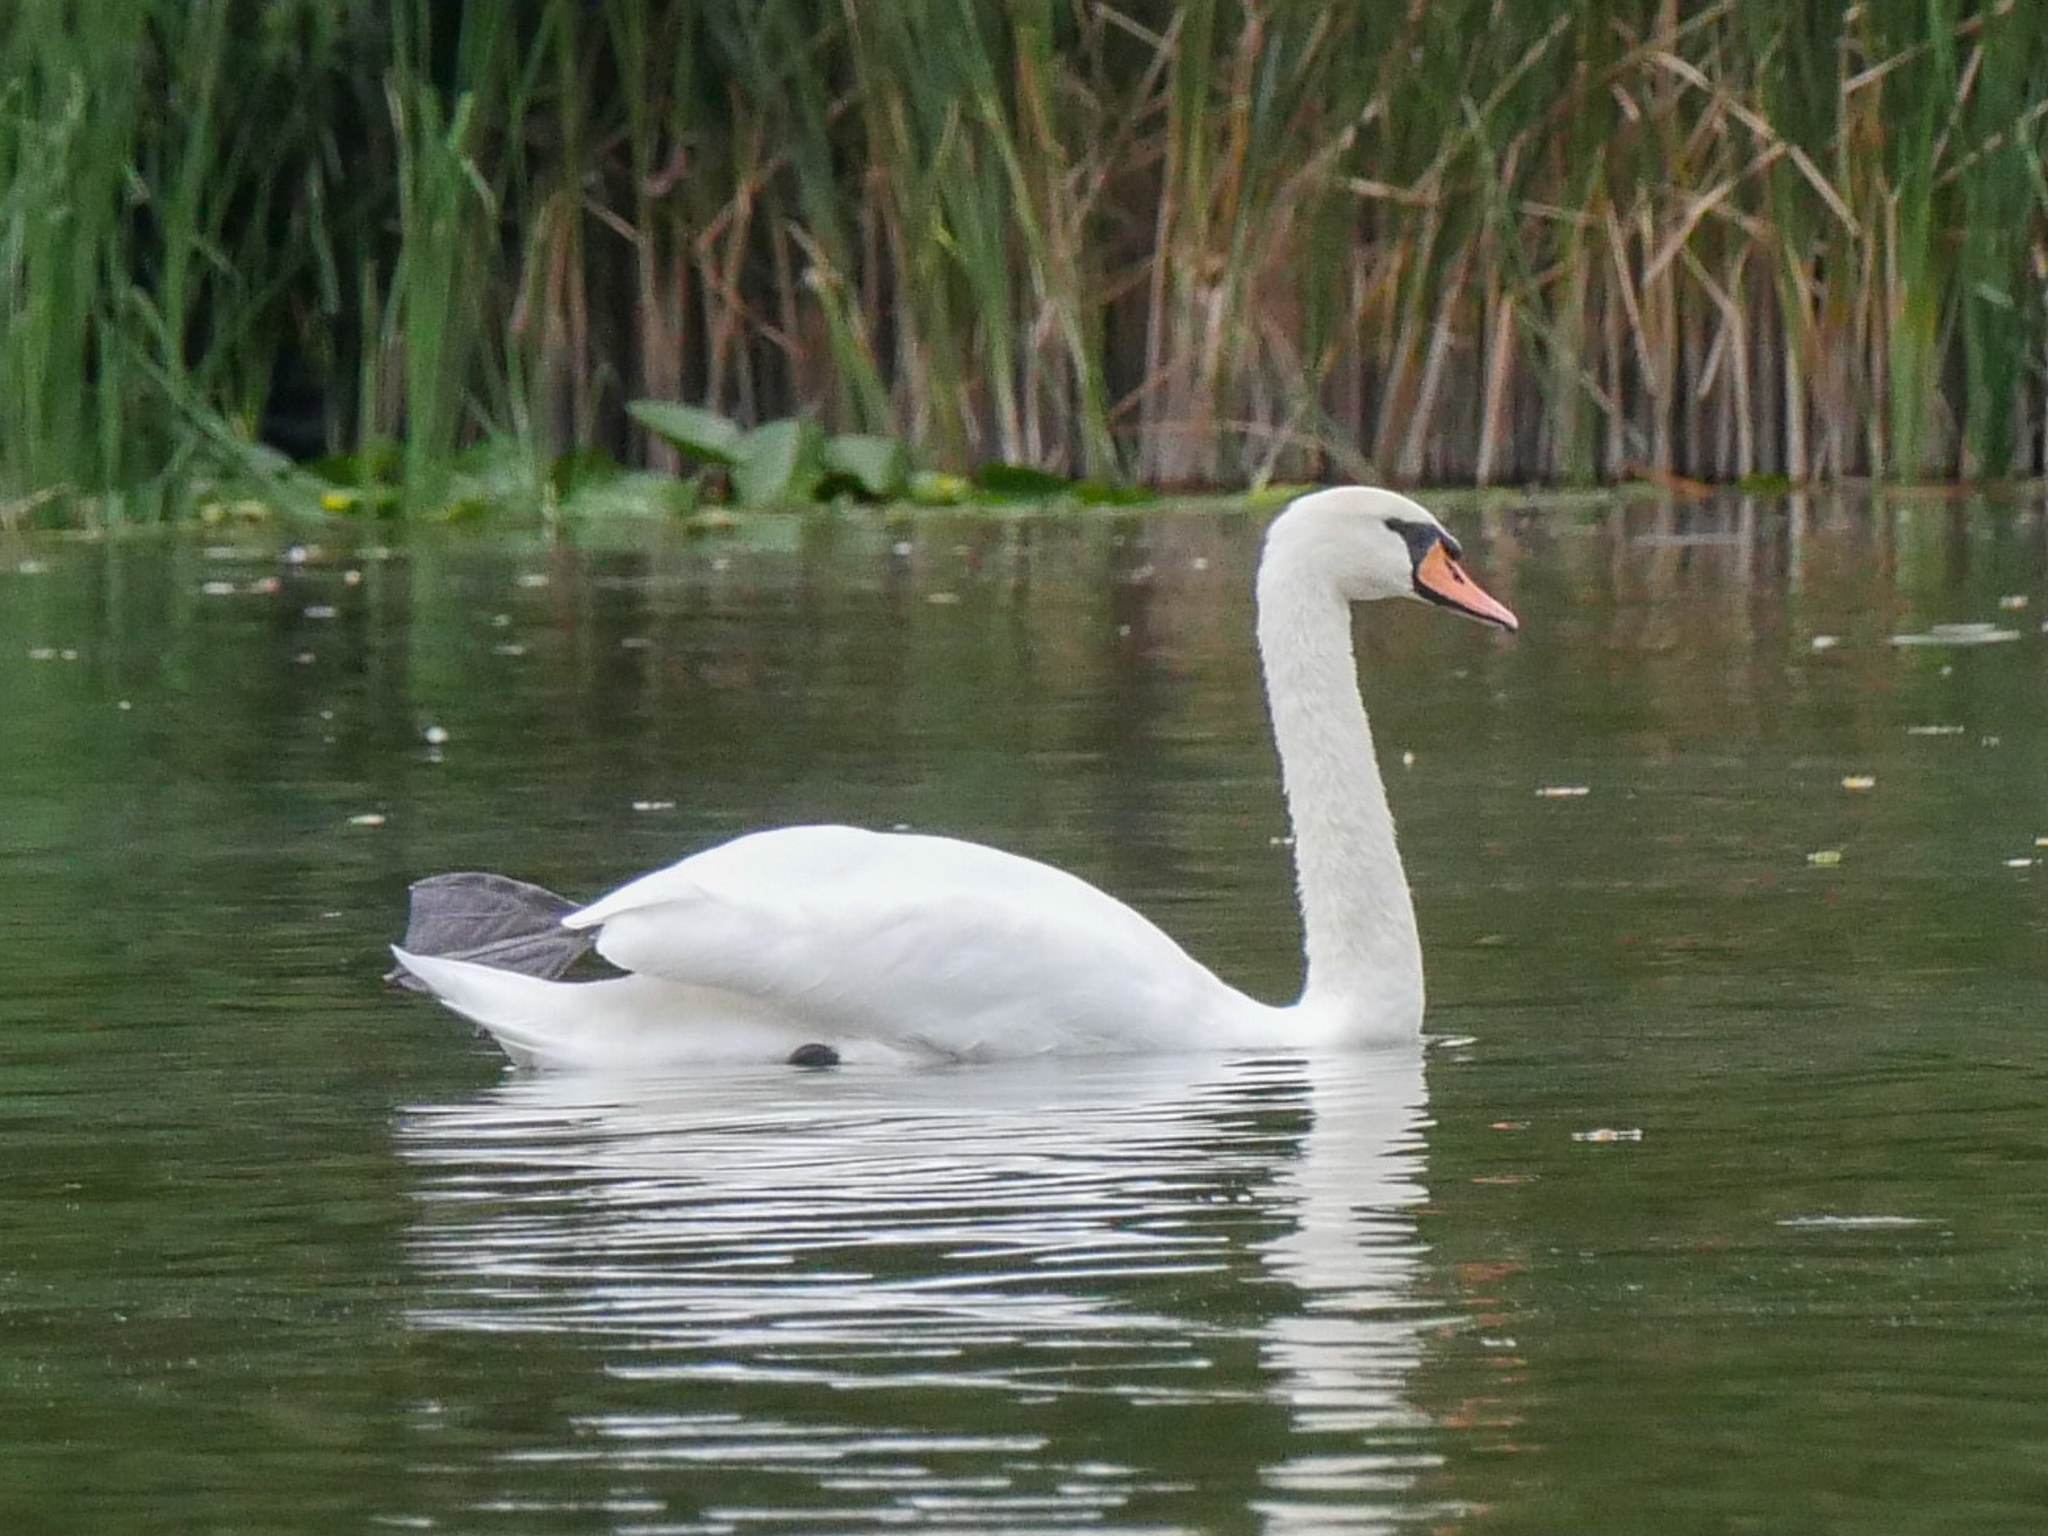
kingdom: Animalia
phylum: Chordata
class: Aves
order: Anseriformes
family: Anatidae
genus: Cygnus
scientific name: Cygnus olor
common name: Mute swan
